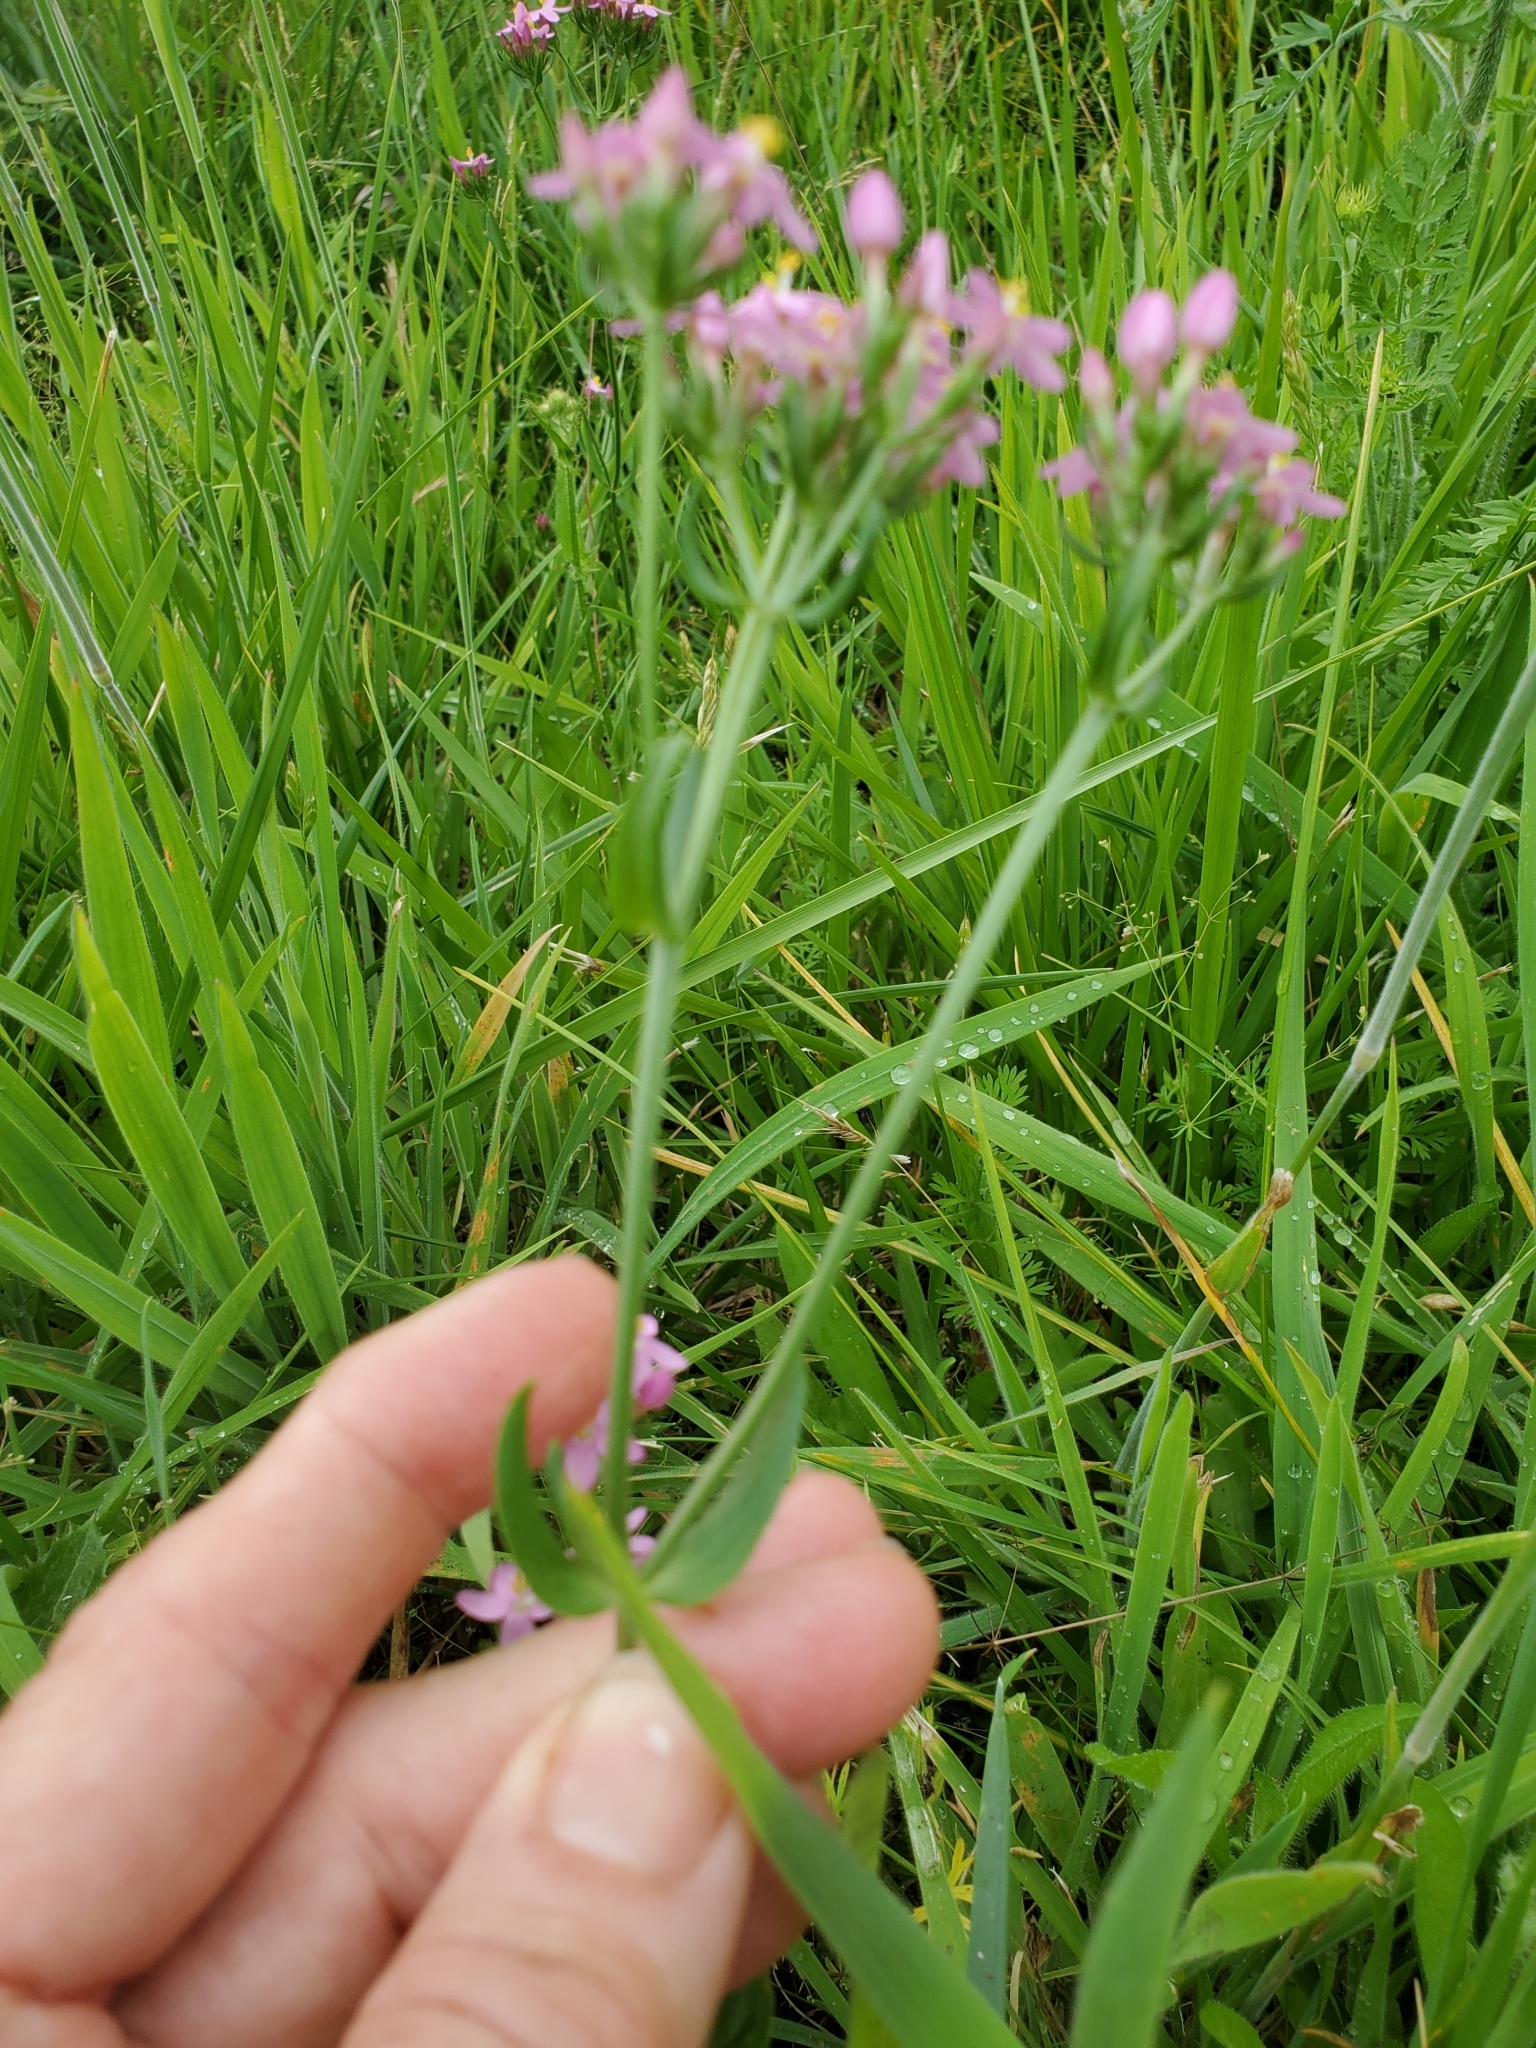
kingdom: Plantae
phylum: Tracheophyta
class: Magnoliopsida
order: Gentianales
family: Gentianaceae
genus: Centaurium
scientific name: Centaurium erythraea
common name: Common centaury
